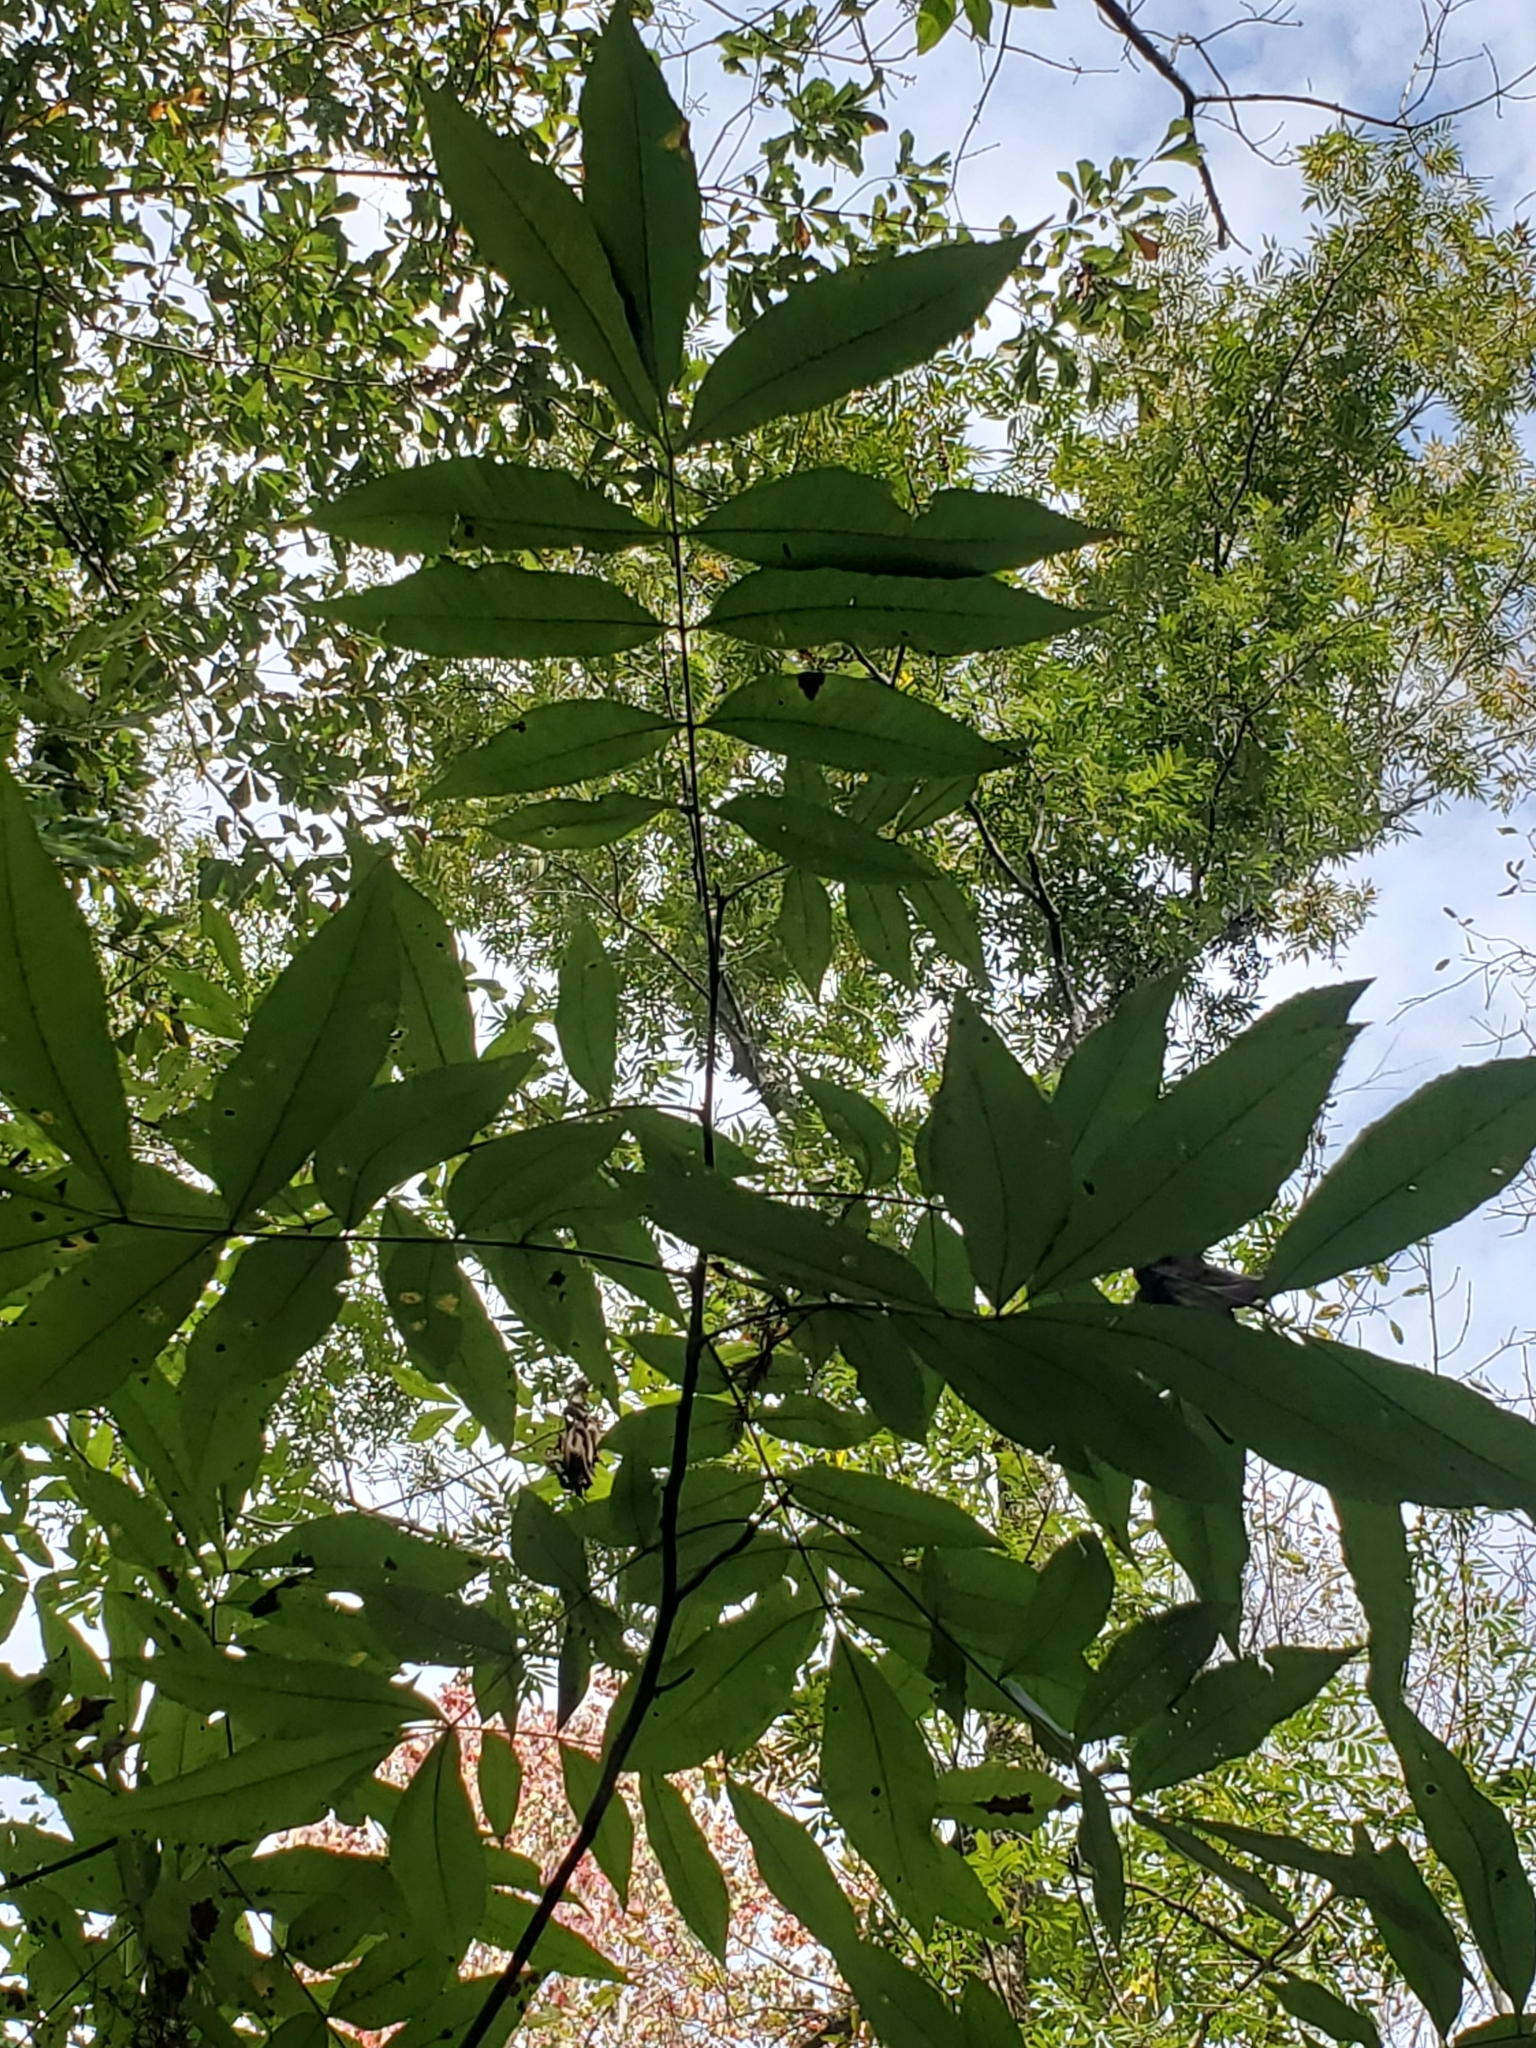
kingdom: Plantae
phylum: Tracheophyta
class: Magnoliopsida
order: Fagales
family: Juglandaceae
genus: Carya
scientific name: Carya aquatica
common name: Water hickory
